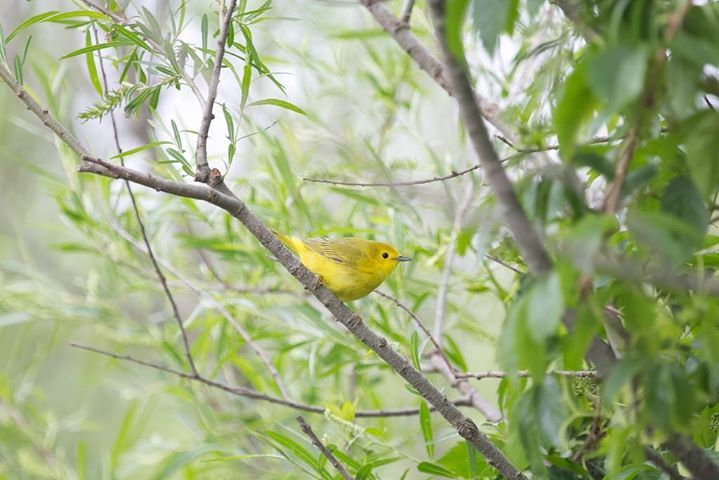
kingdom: Animalia
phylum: Chordata
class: Aves
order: Passeriformes
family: Parulidae
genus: Setophaga
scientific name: Setophaga petechia
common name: Yellow warbler
